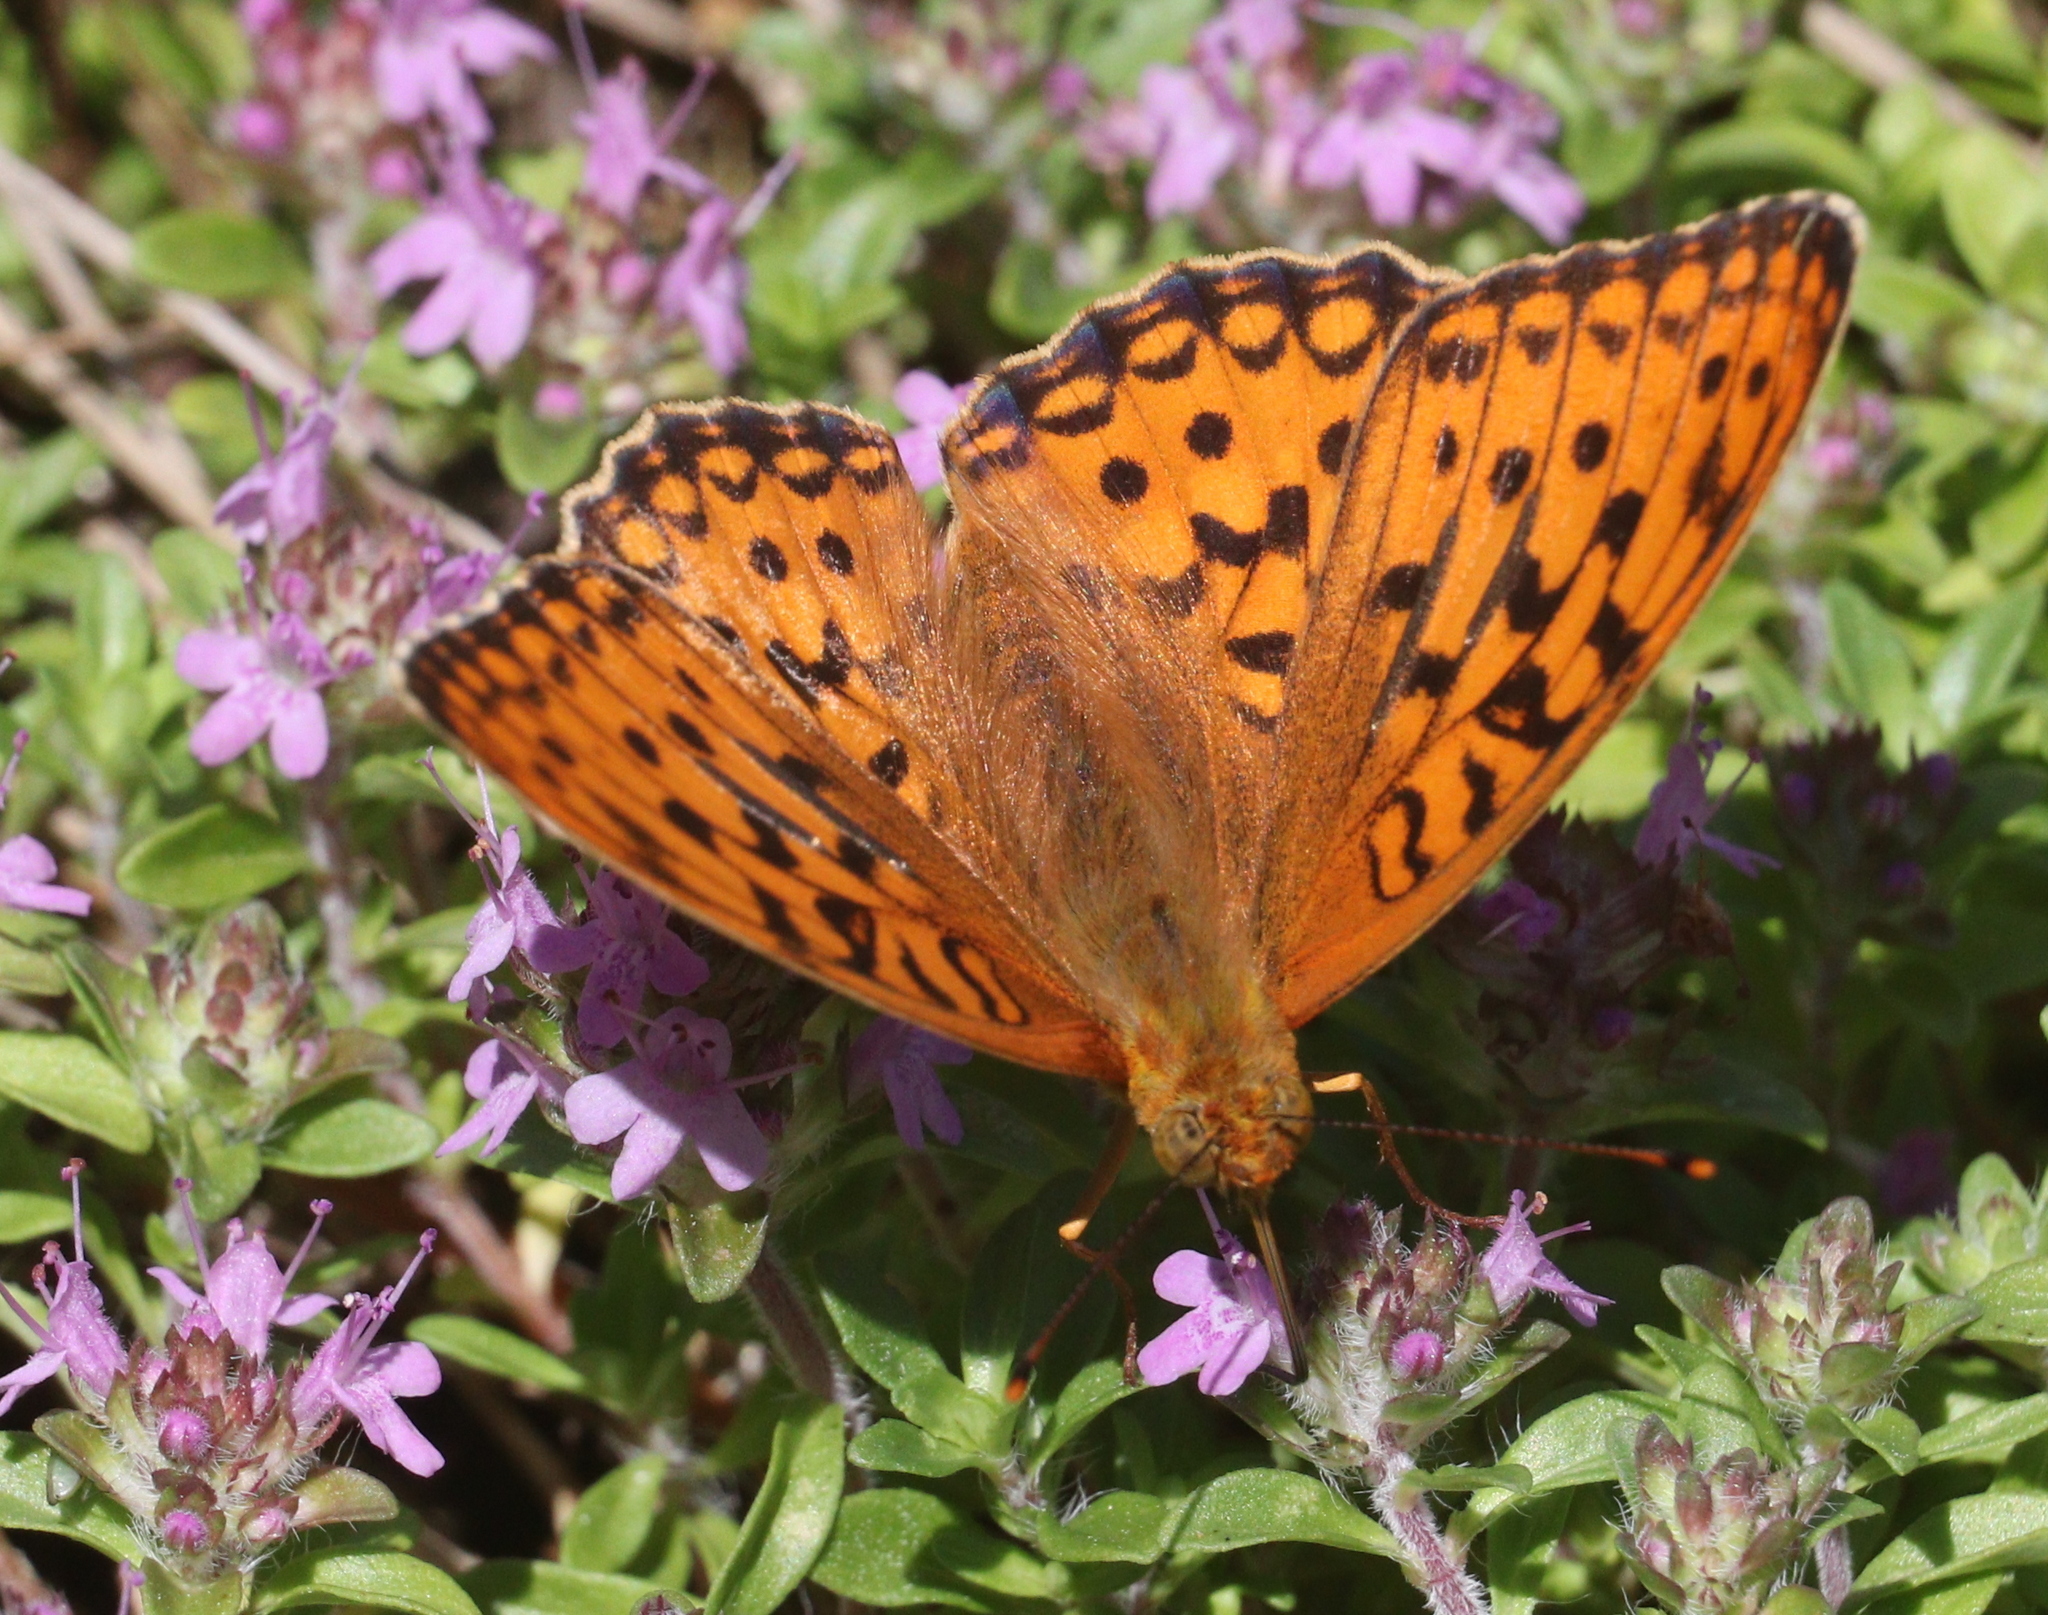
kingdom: Animalia
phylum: Arthropoda
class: Insecta
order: Lepidoptera
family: Nymphalidae
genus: Fabriciana
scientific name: Fabriciana adippe
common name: High brown fritillary
